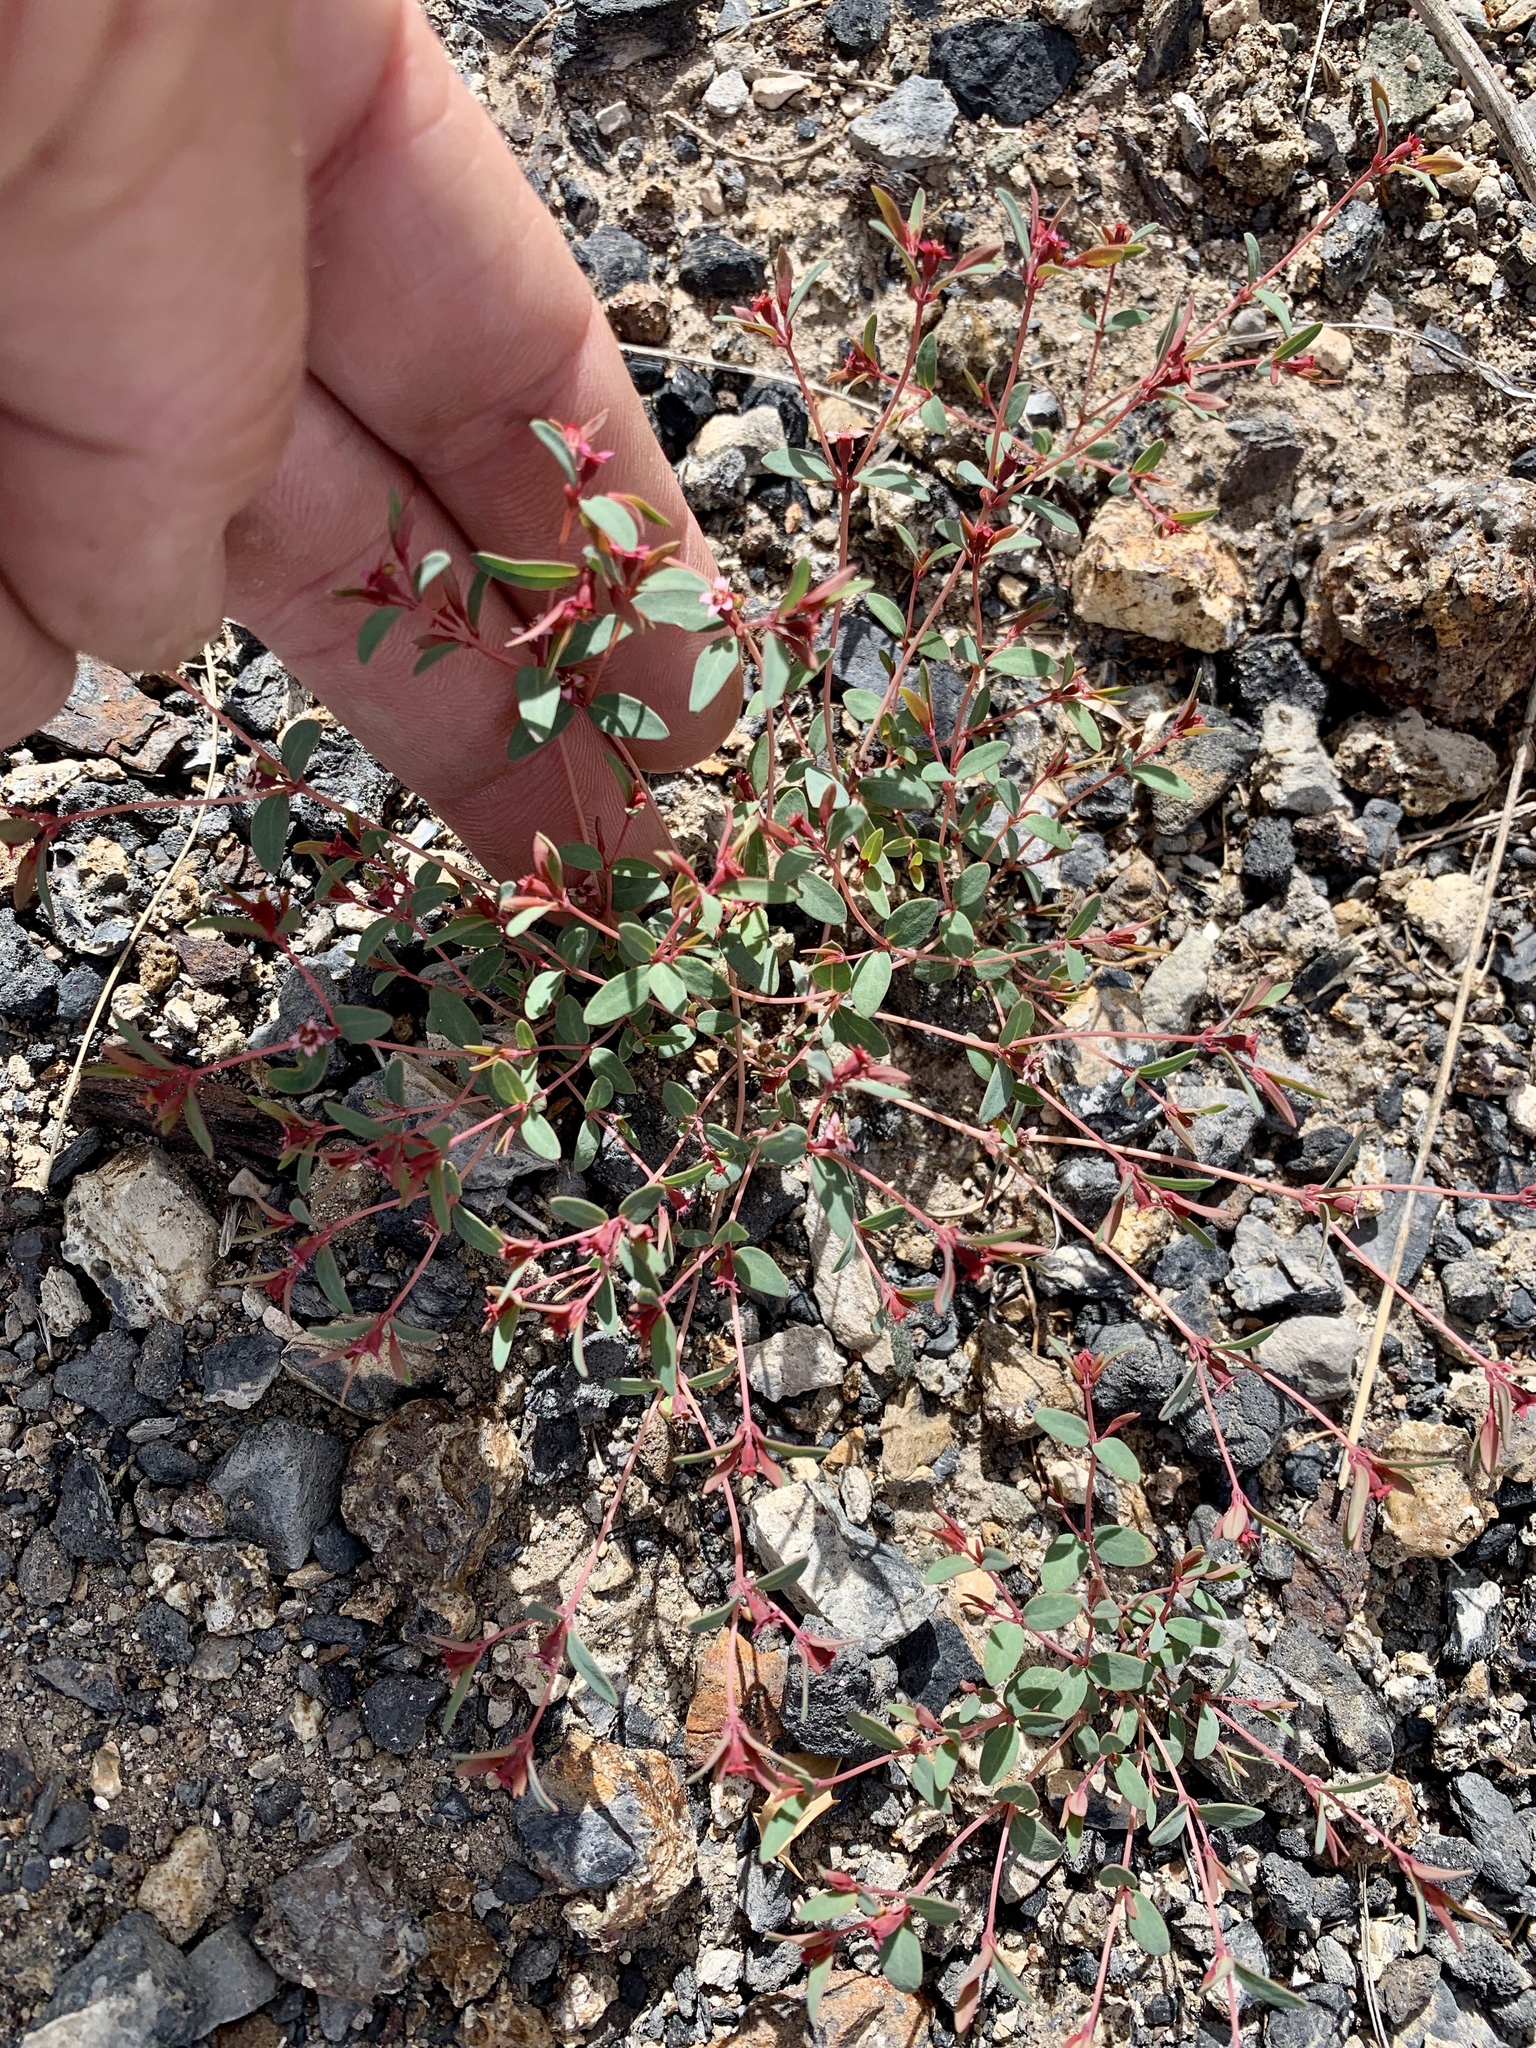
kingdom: Plantae
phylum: Tracheophyta
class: Magnoliopsida
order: Malpighiales
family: Euphorbiaceae
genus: Euphorbia
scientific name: Euphorbia fendleri
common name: Fendler's euphorbia
